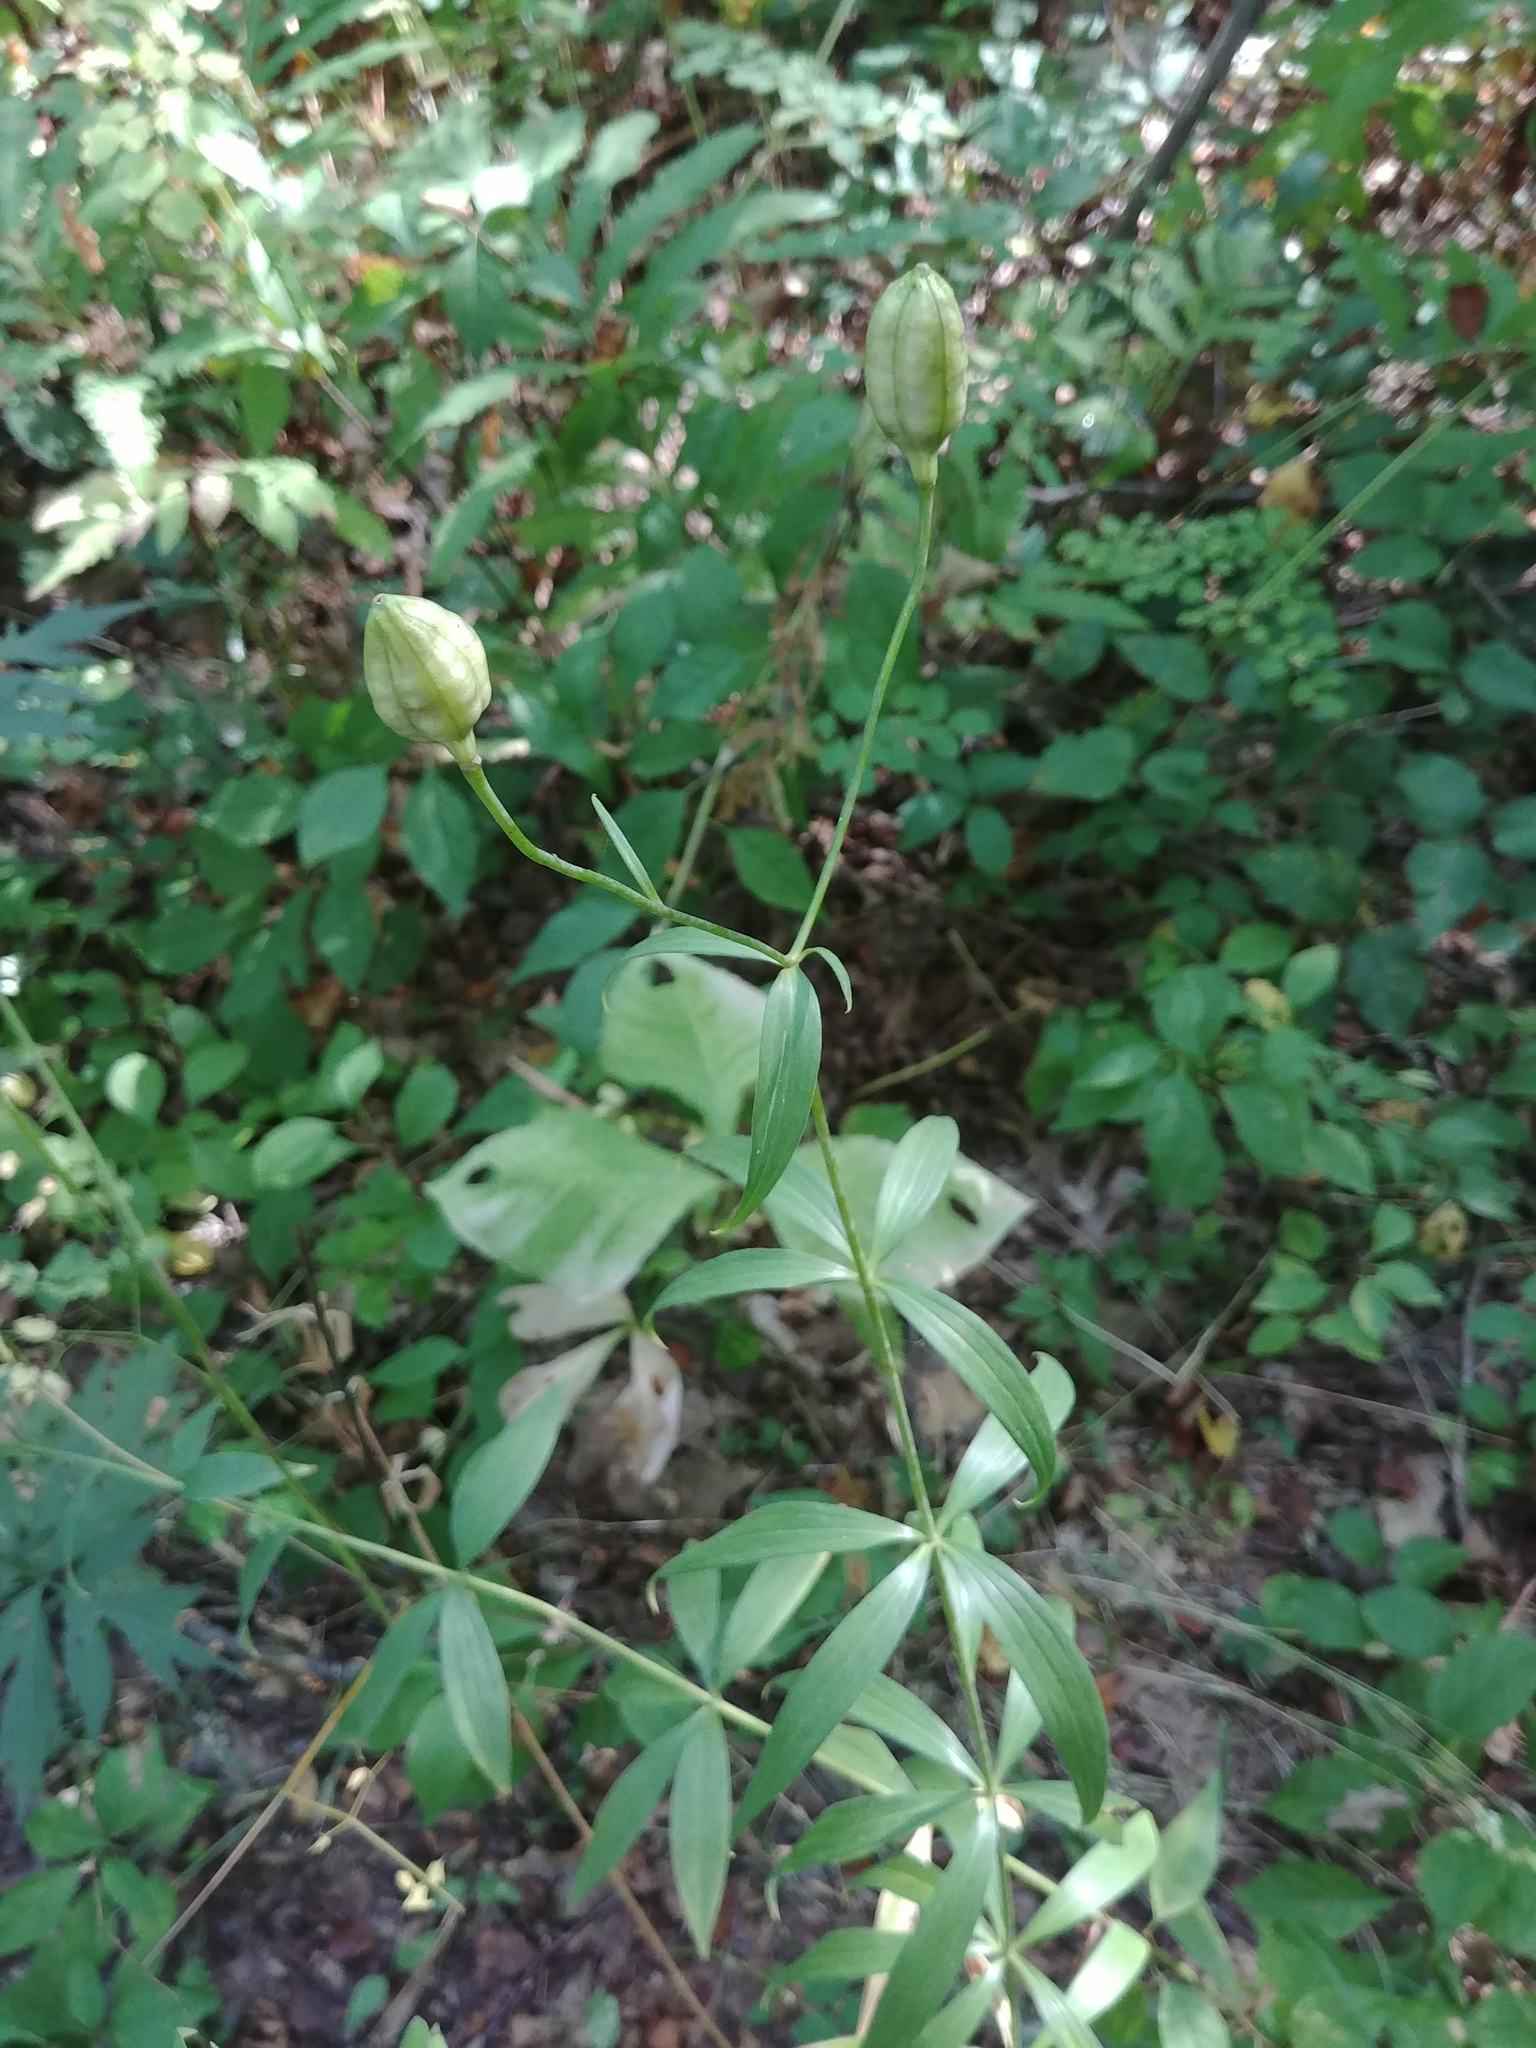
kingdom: Plantae
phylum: Tracheophyta
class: Liliopsida
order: Liliales
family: Liliaceae
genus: Lilium
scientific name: Lilium
